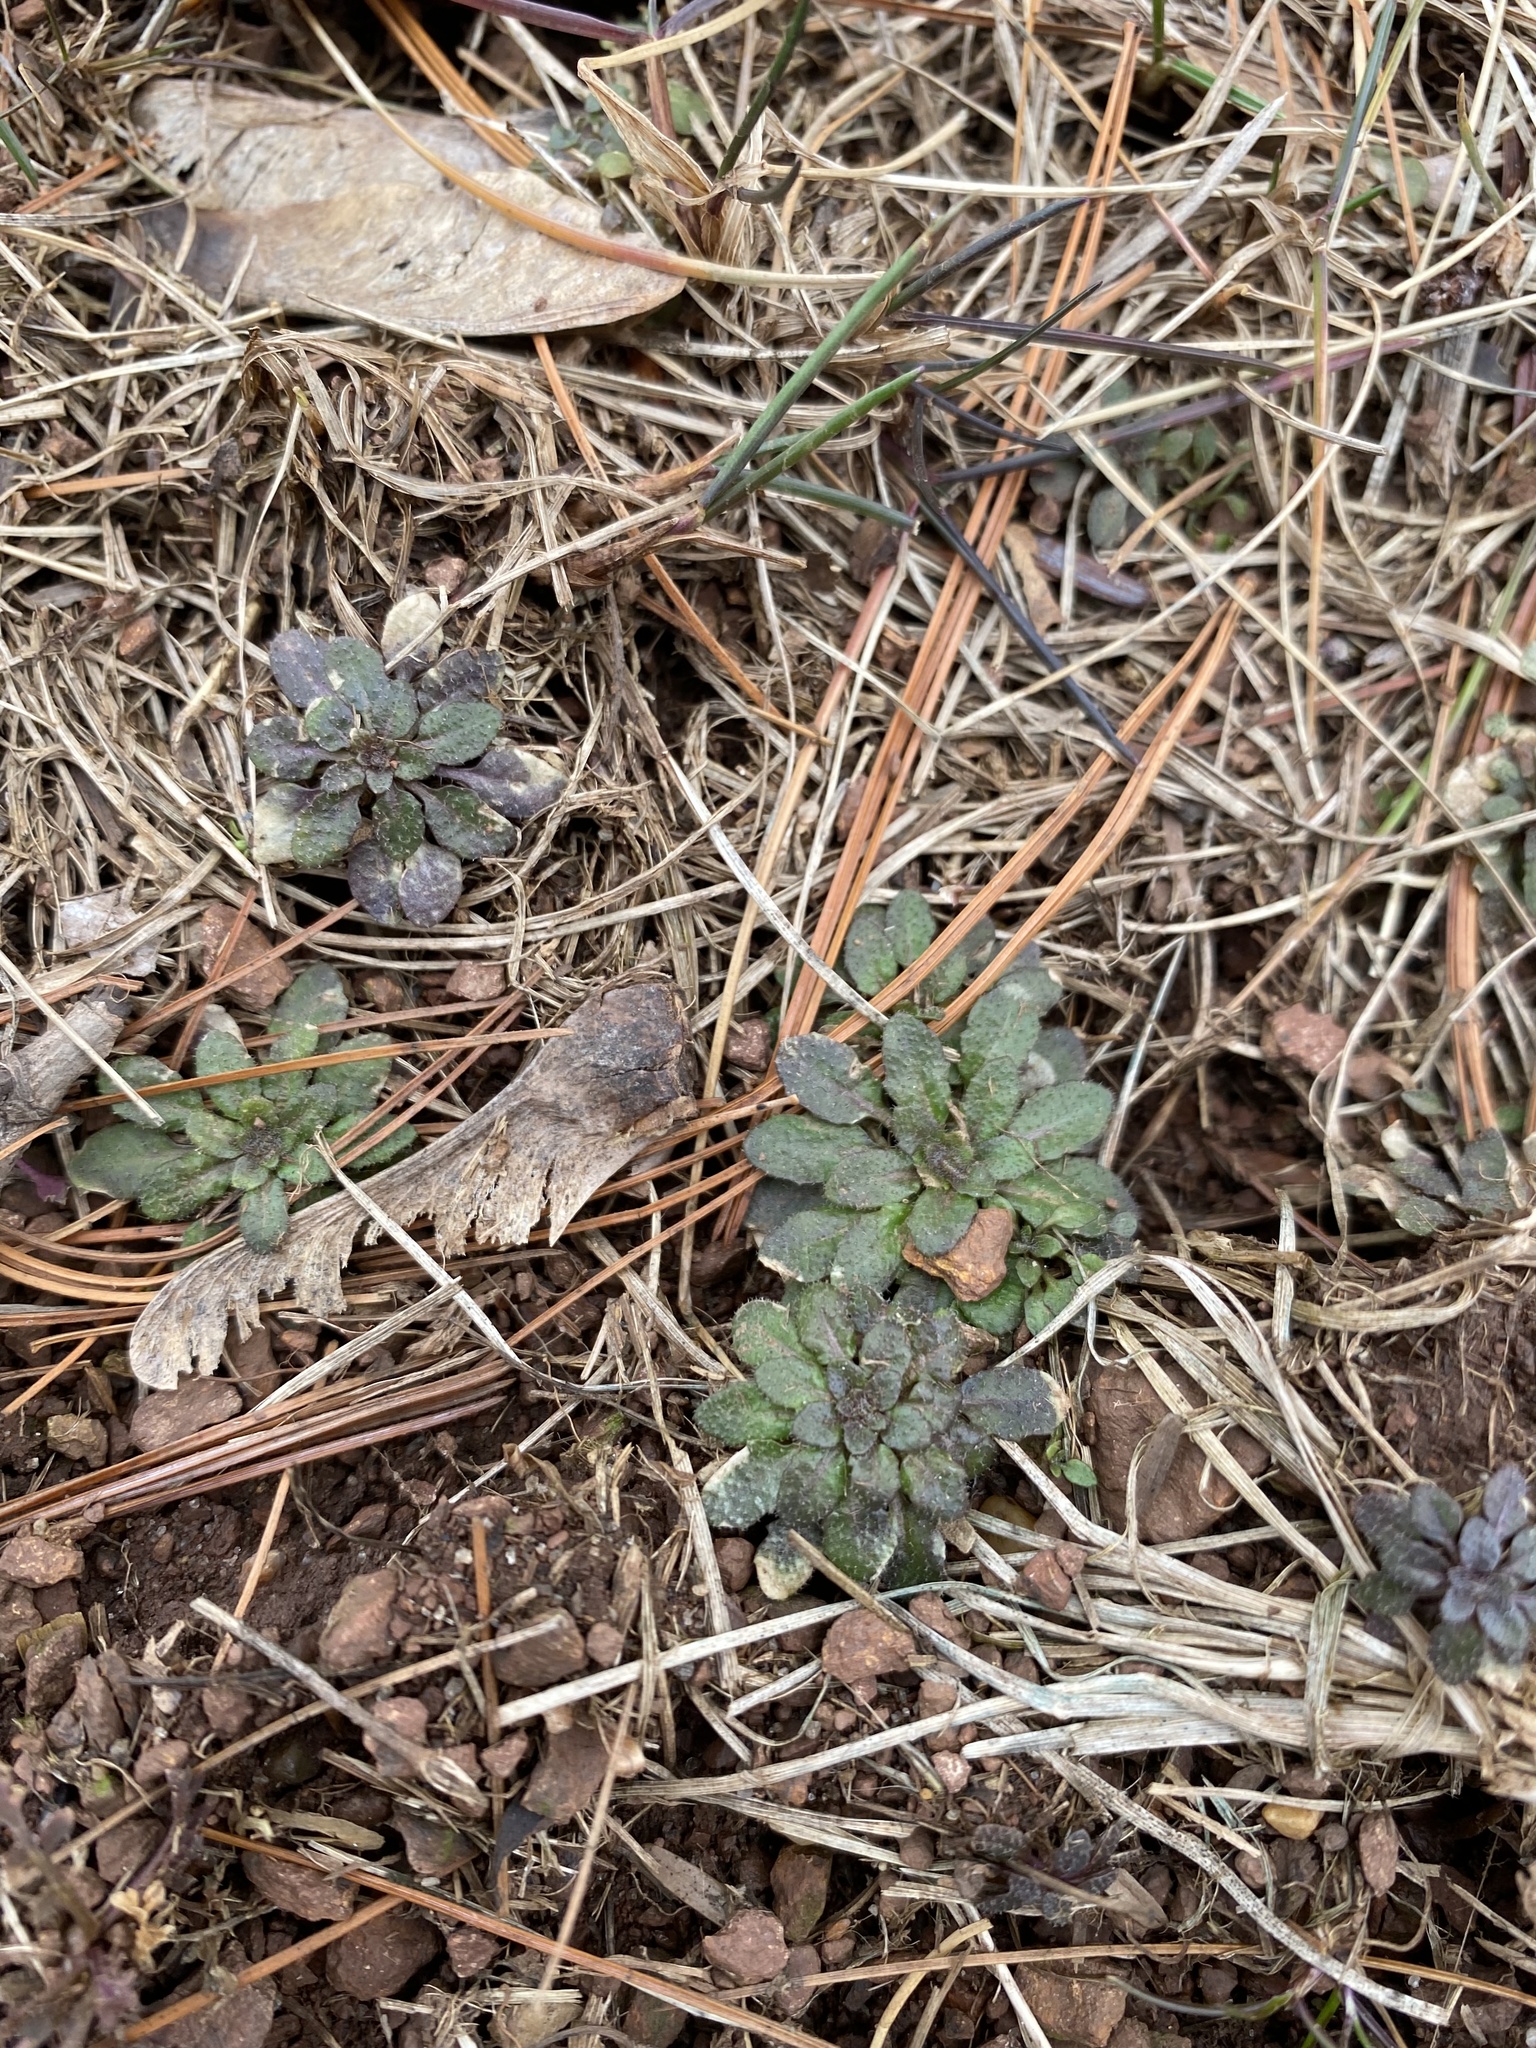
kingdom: Plantae
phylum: Tracheophyta
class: Magnoliopsida
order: Brassicales
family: Brassicaceae
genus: Draba
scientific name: Draba verna
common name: Spring draba
